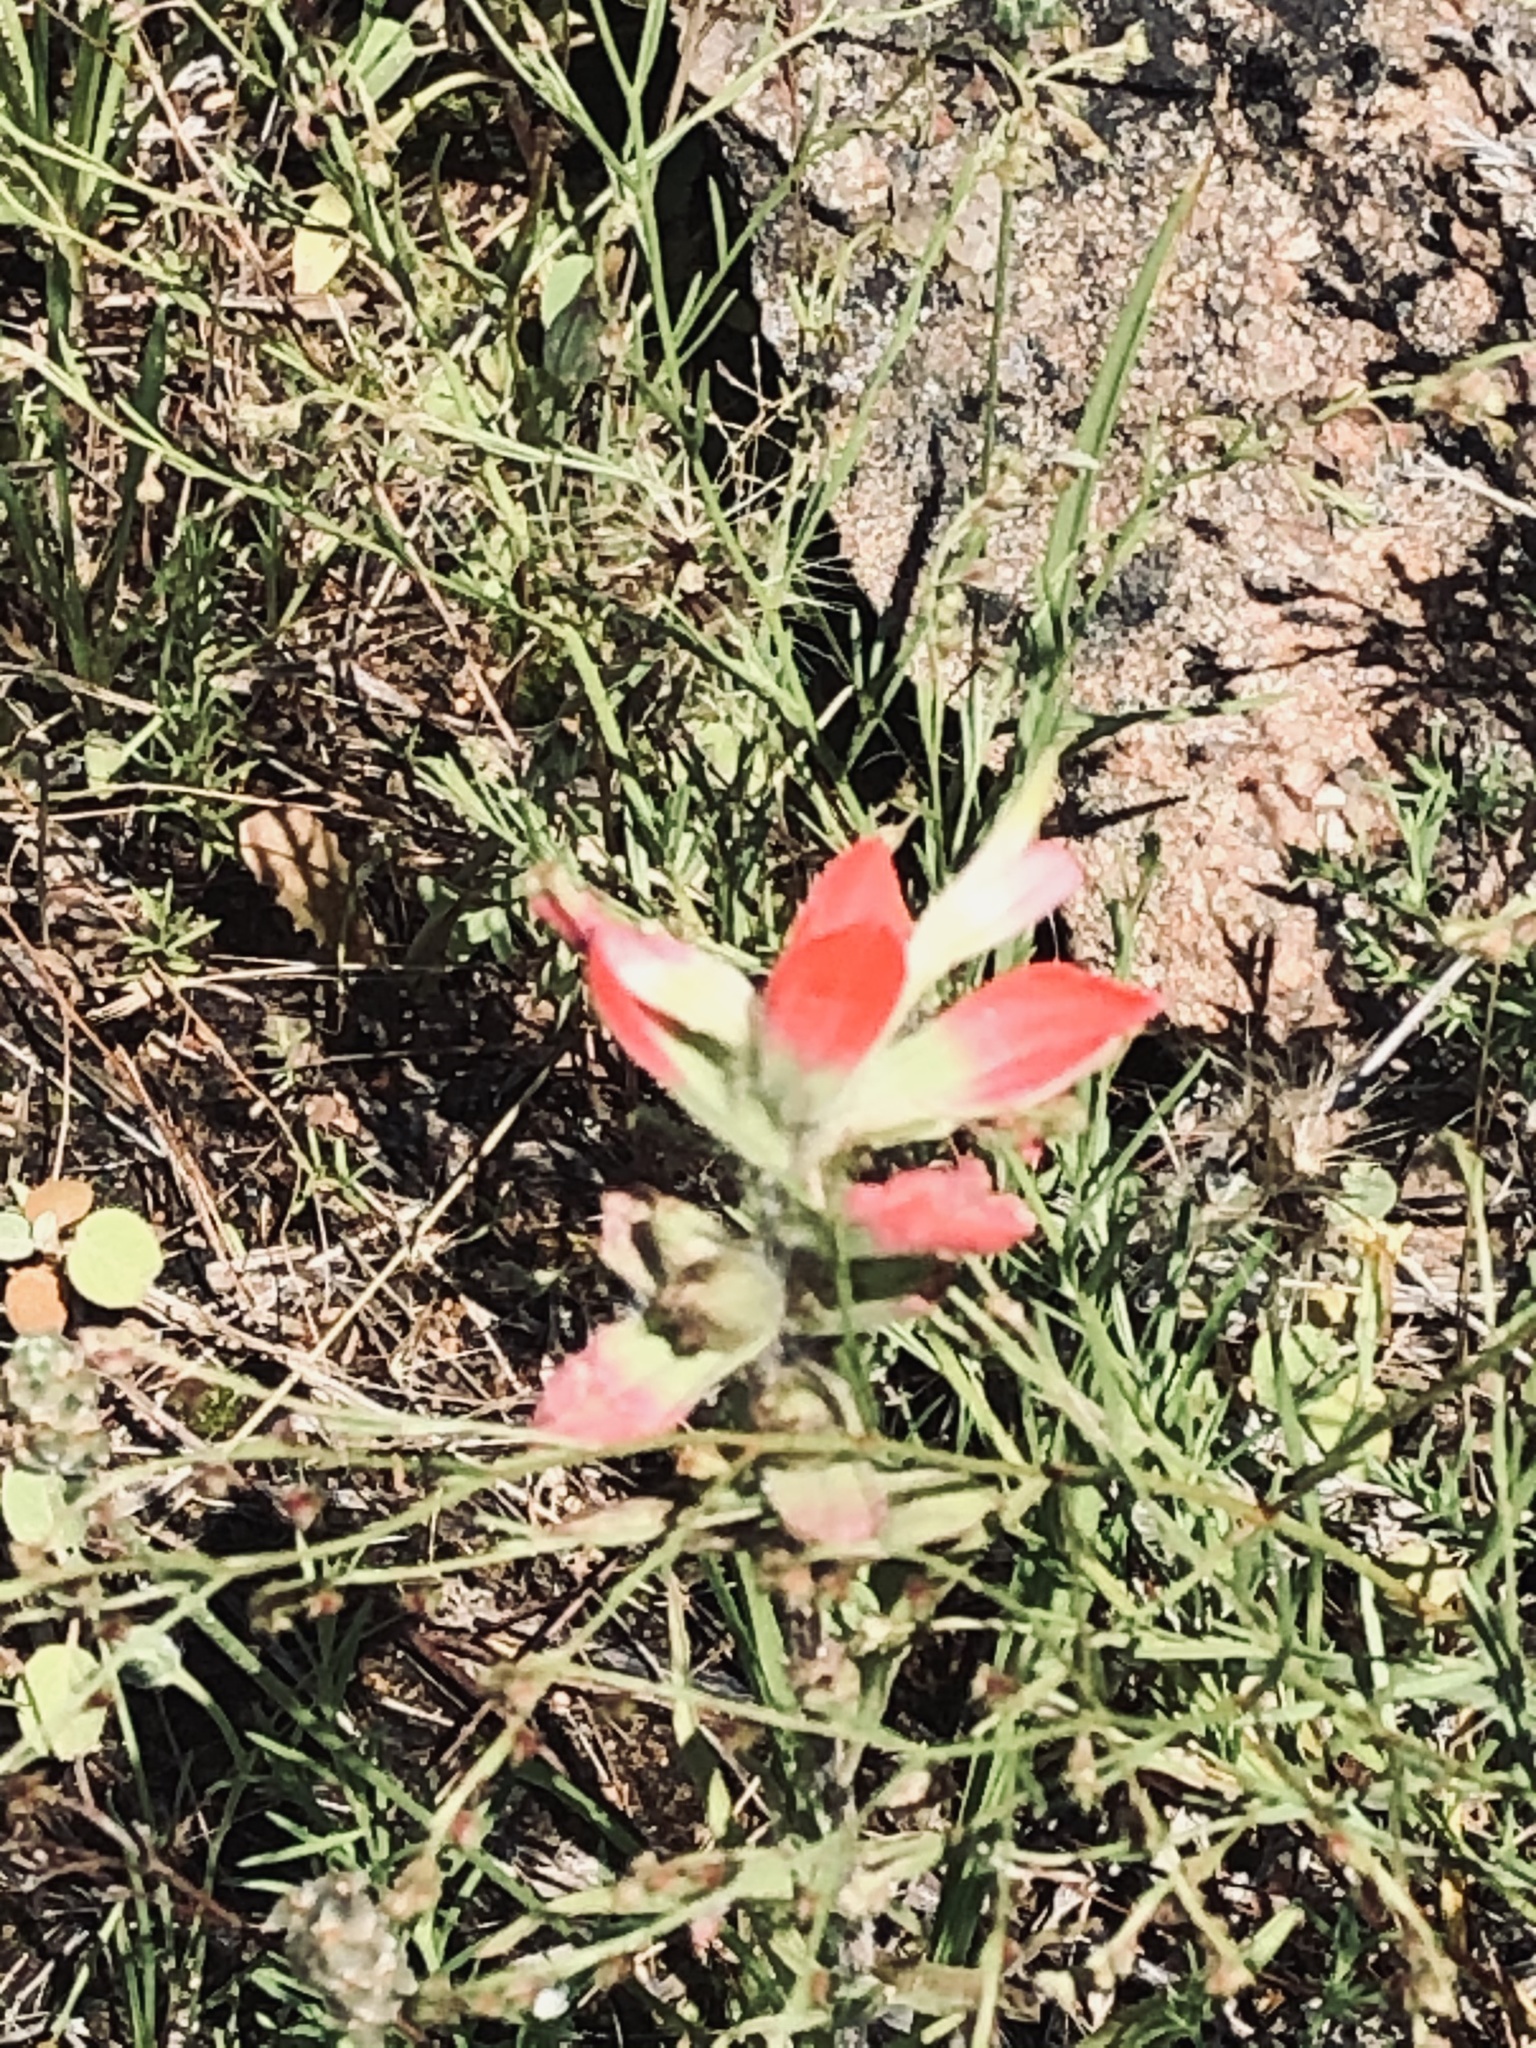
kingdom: Plantae
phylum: Tracheophyta
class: Magnoliopsida
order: Lamiales
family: Orobanchaceae
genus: Castilleja
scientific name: Castilleja indivisa
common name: Texas paintbrush
